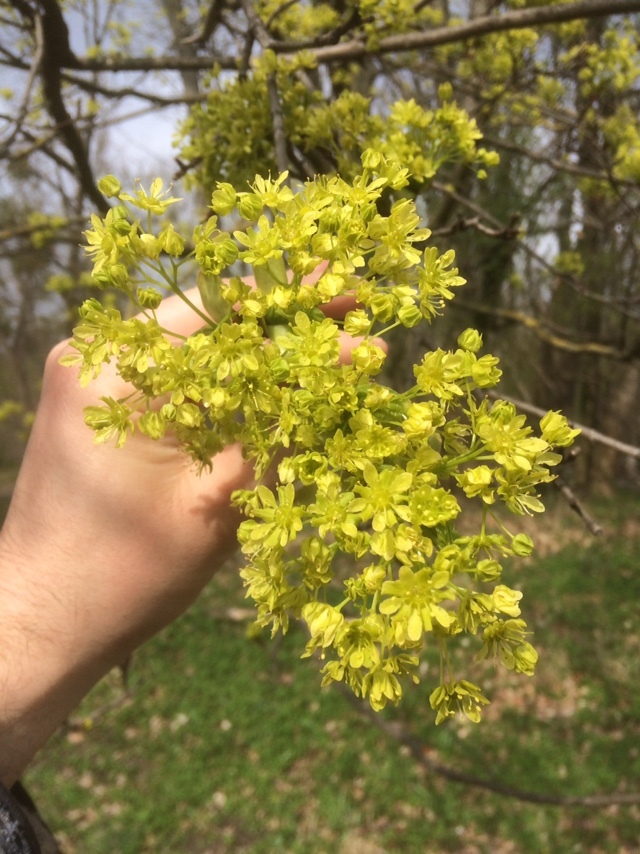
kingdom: Plantae
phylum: Tracheophyta
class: Magnoliopsida
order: Sapindales
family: Sapindaceae
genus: Acer
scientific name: Acer platanoides
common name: Norway maple
